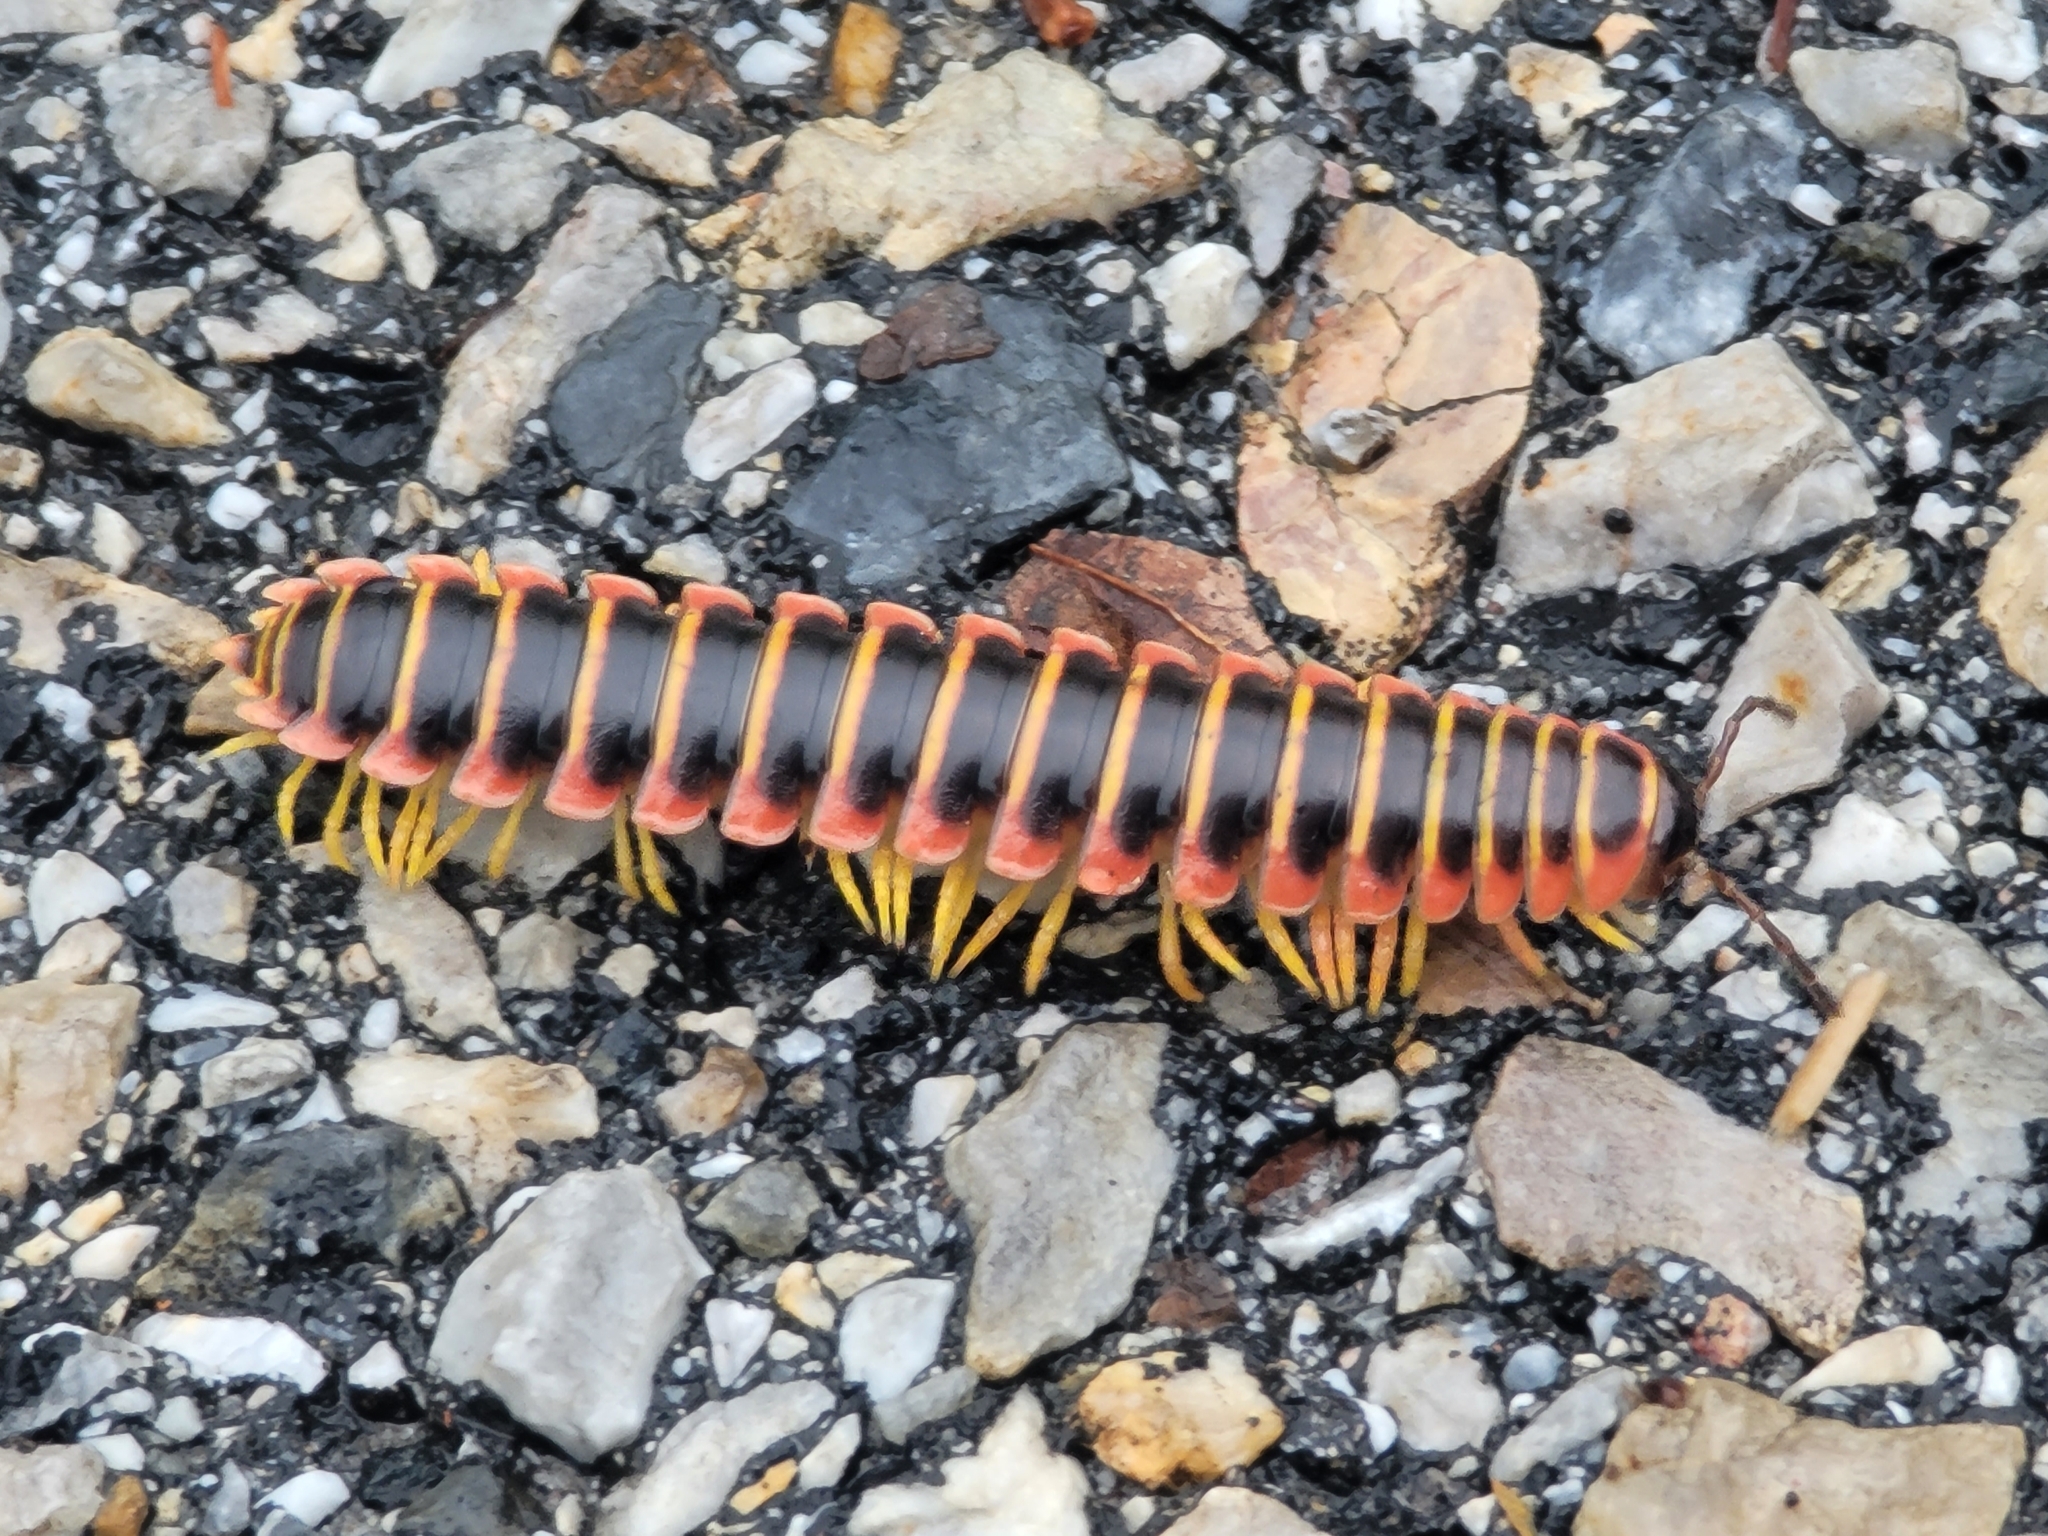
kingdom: Animalia
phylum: Arthropoda
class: Diplopoda
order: Polydesmida
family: Xystodesmidae
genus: Apheloria
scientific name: Apheloria virginiensis
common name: Black-and-gold flat millipede
